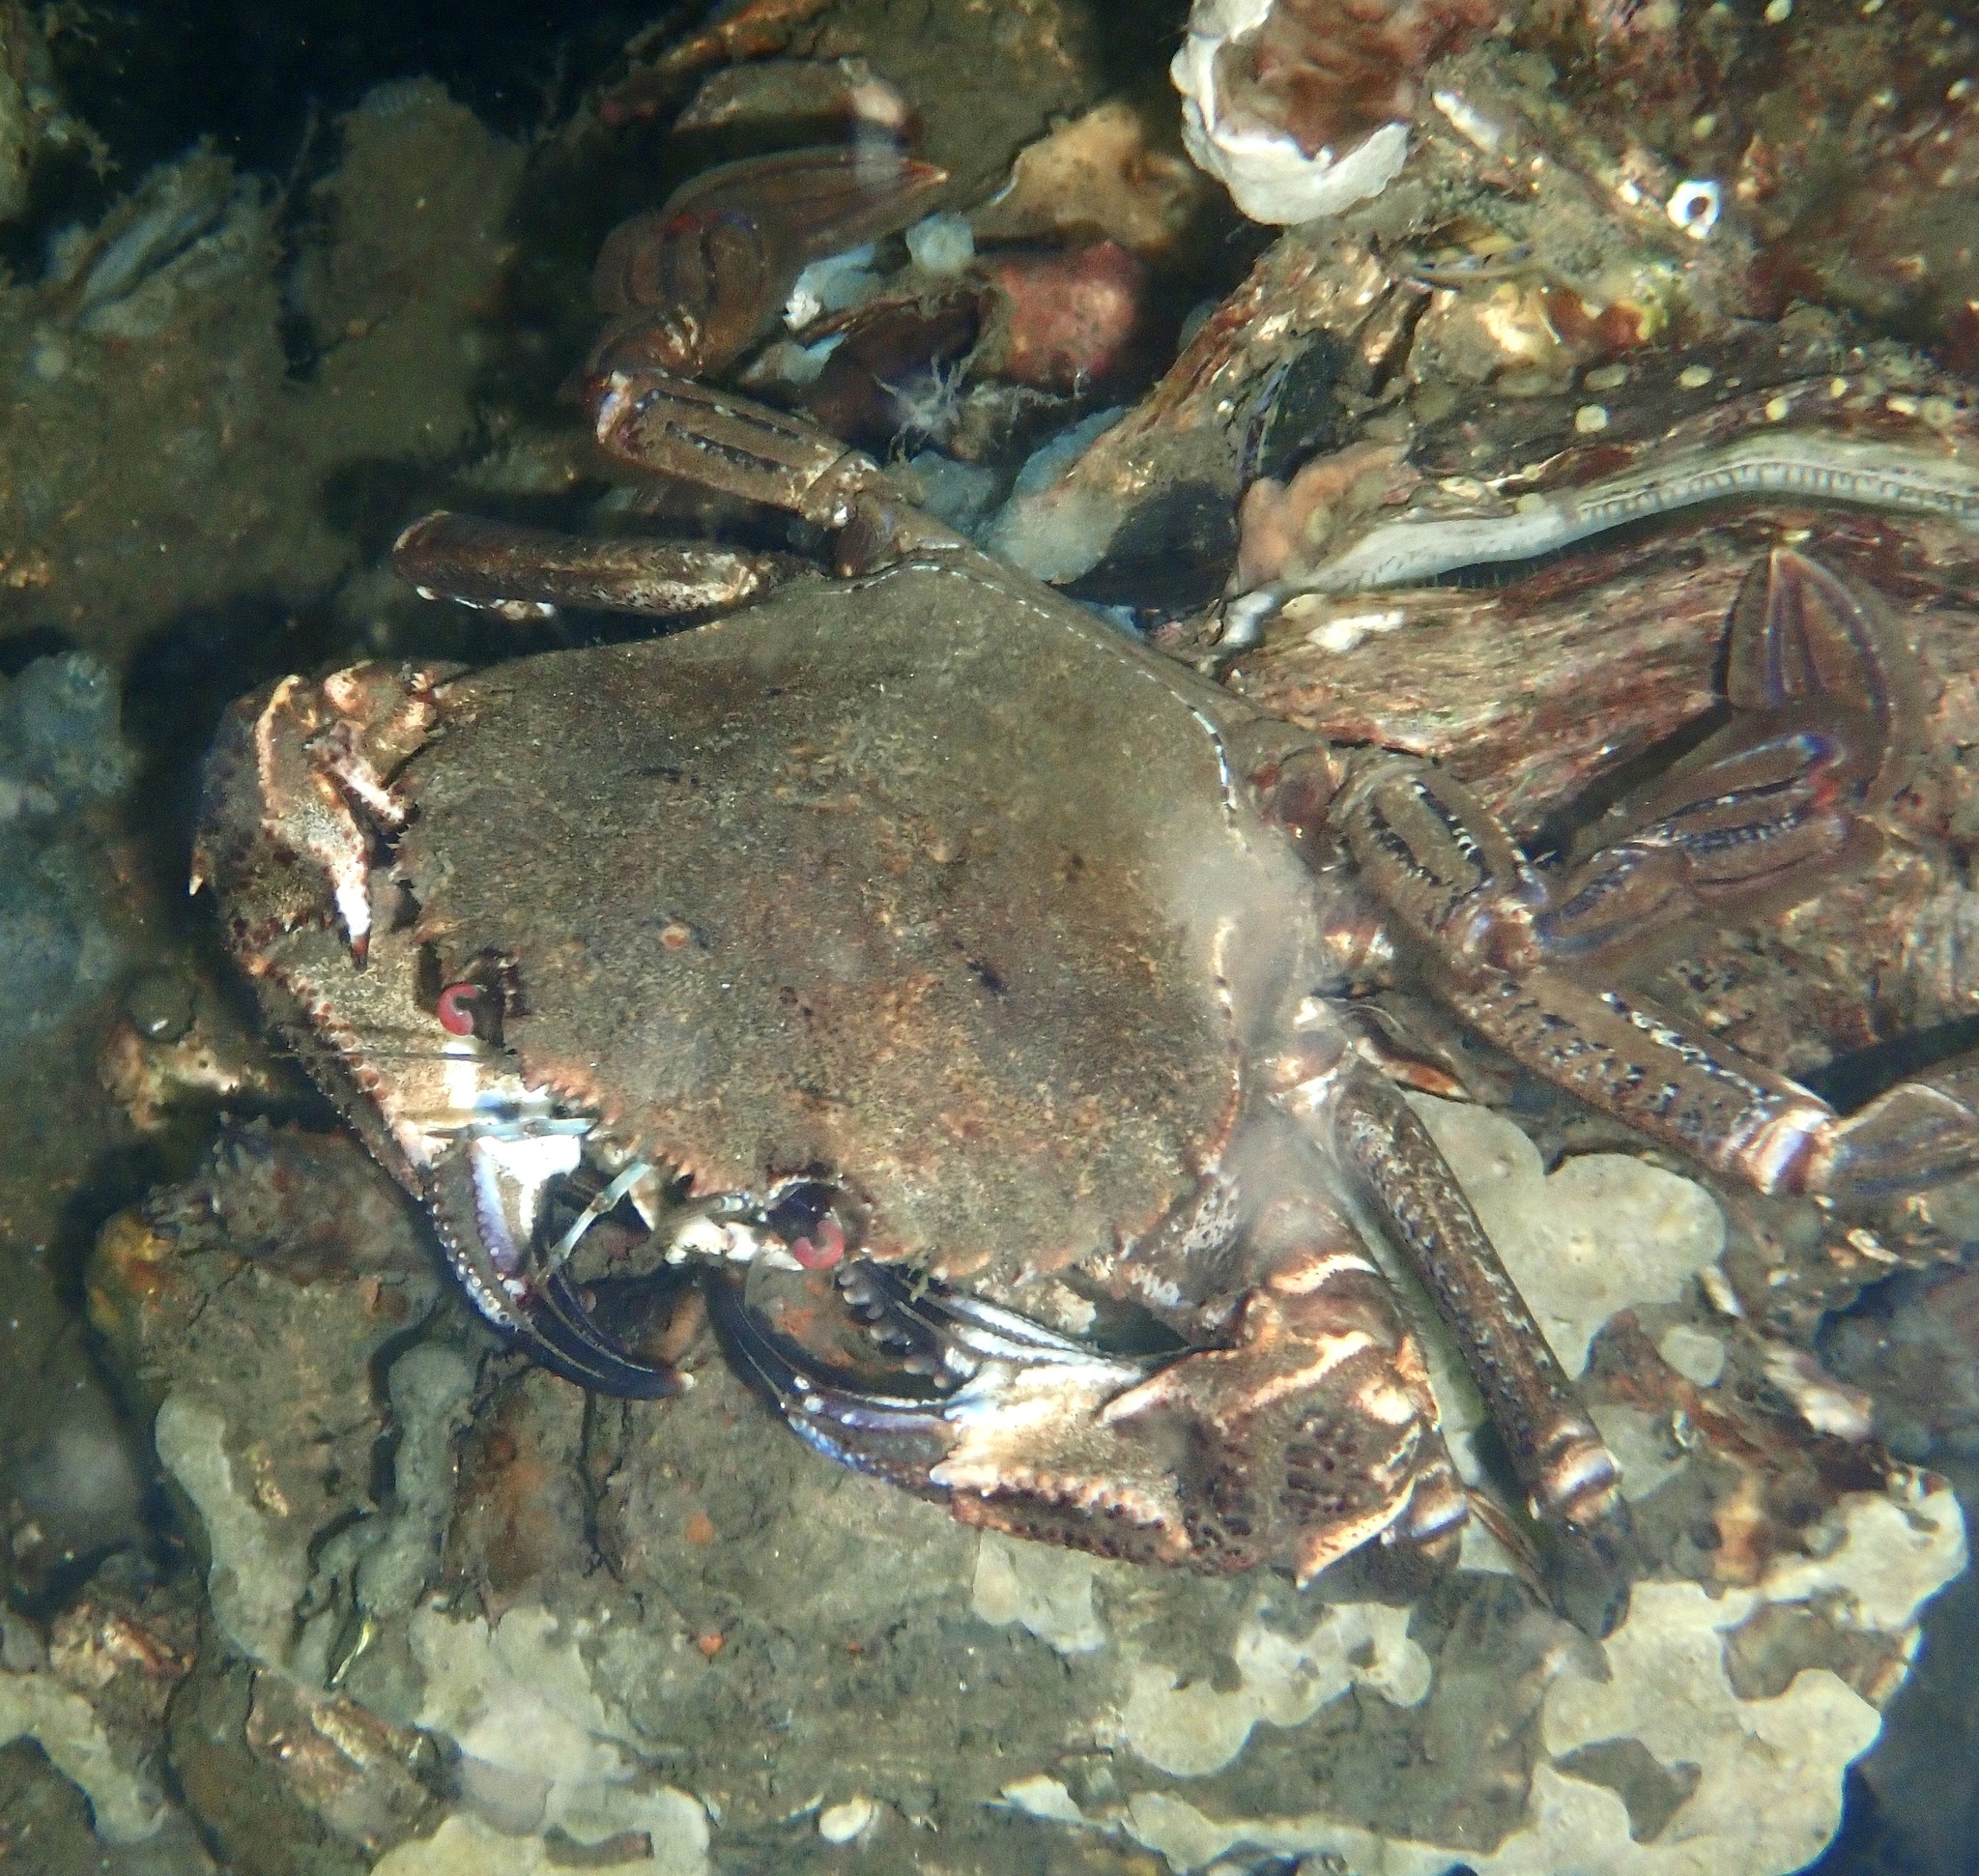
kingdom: Animalia
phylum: Arthropoda
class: Malacostraca
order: Decapoda
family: Polybiidae
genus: Necora
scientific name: Necora puber
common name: Velvet swimming crab
